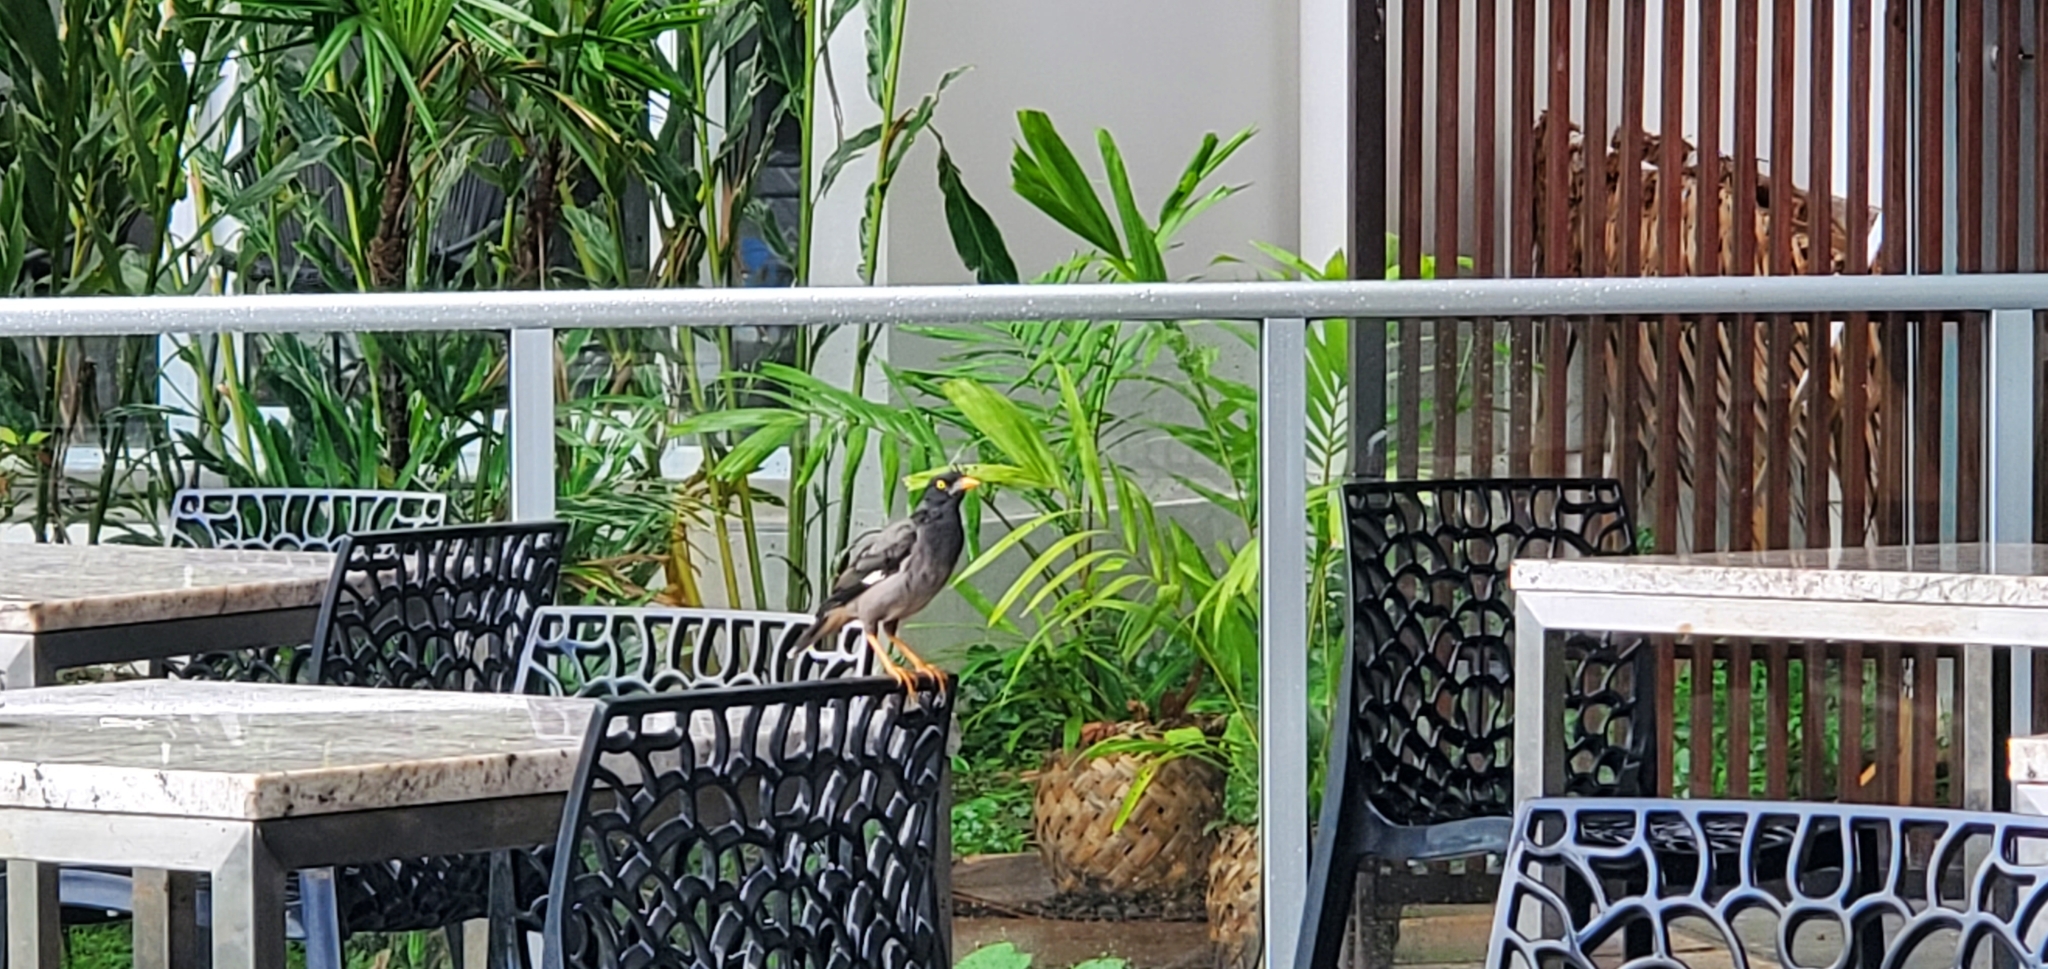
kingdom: Animalia
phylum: Chordata
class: Aves
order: Passeriformes
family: Sturnidae
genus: Acridotheres
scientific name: Acridotheres fuscus
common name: Jungle myna
